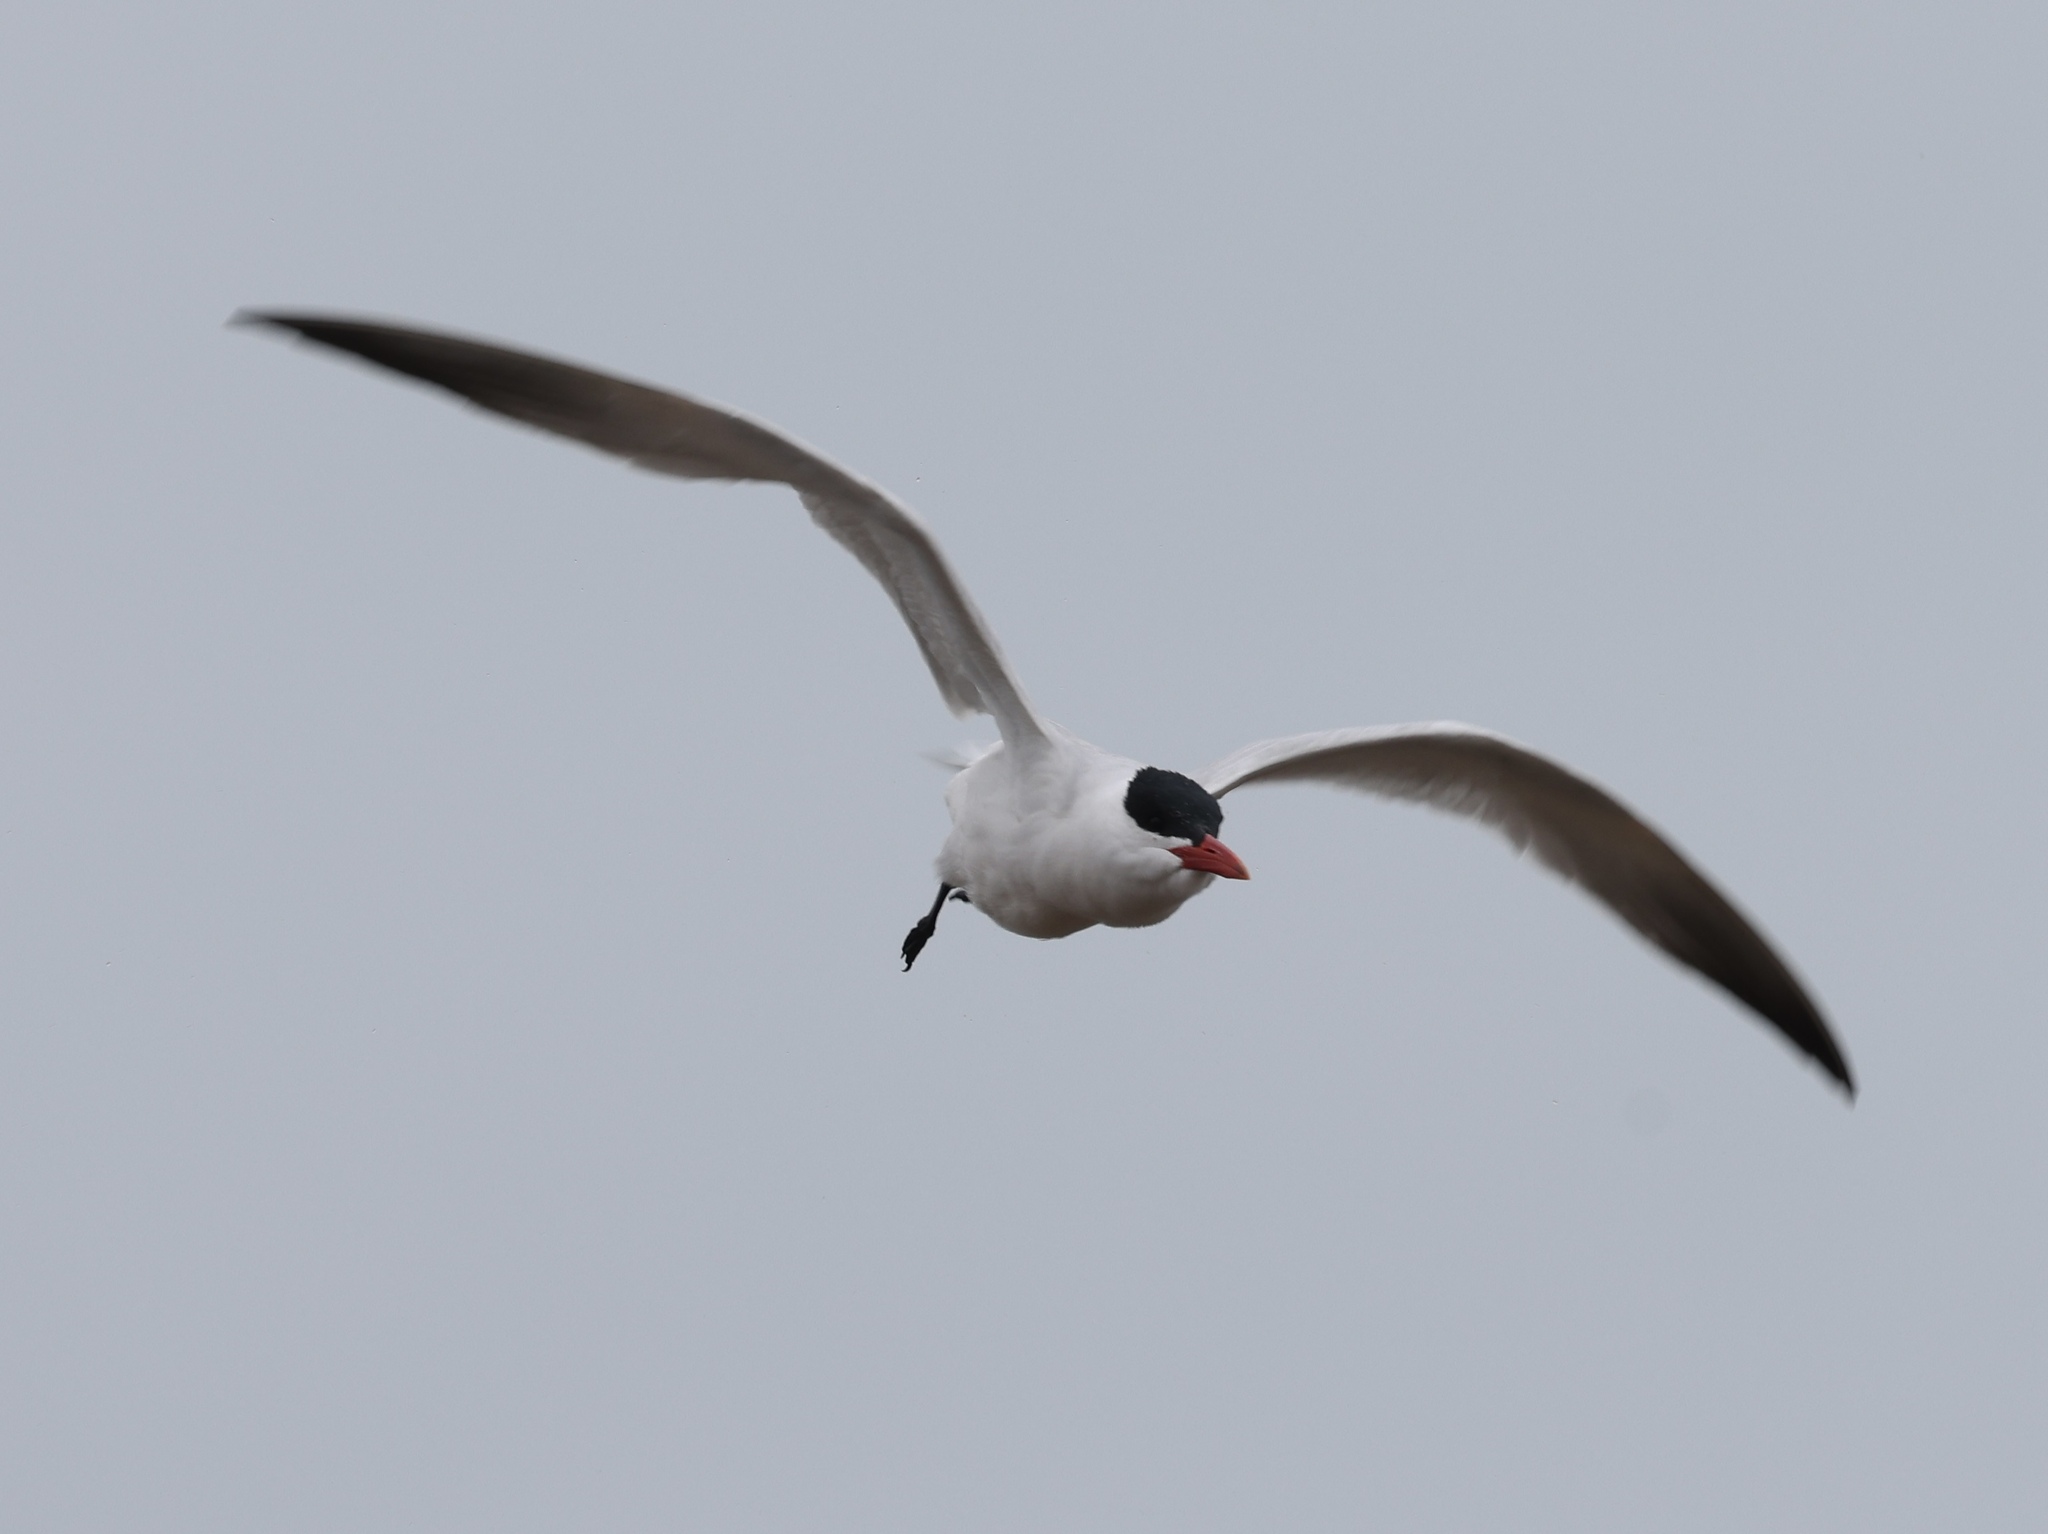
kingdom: Animalia
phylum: Chordata
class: Aves
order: Charadriiformes
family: Laridae
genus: Hydroprogne
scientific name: Hydroprogne caspia
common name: Caspian tern
